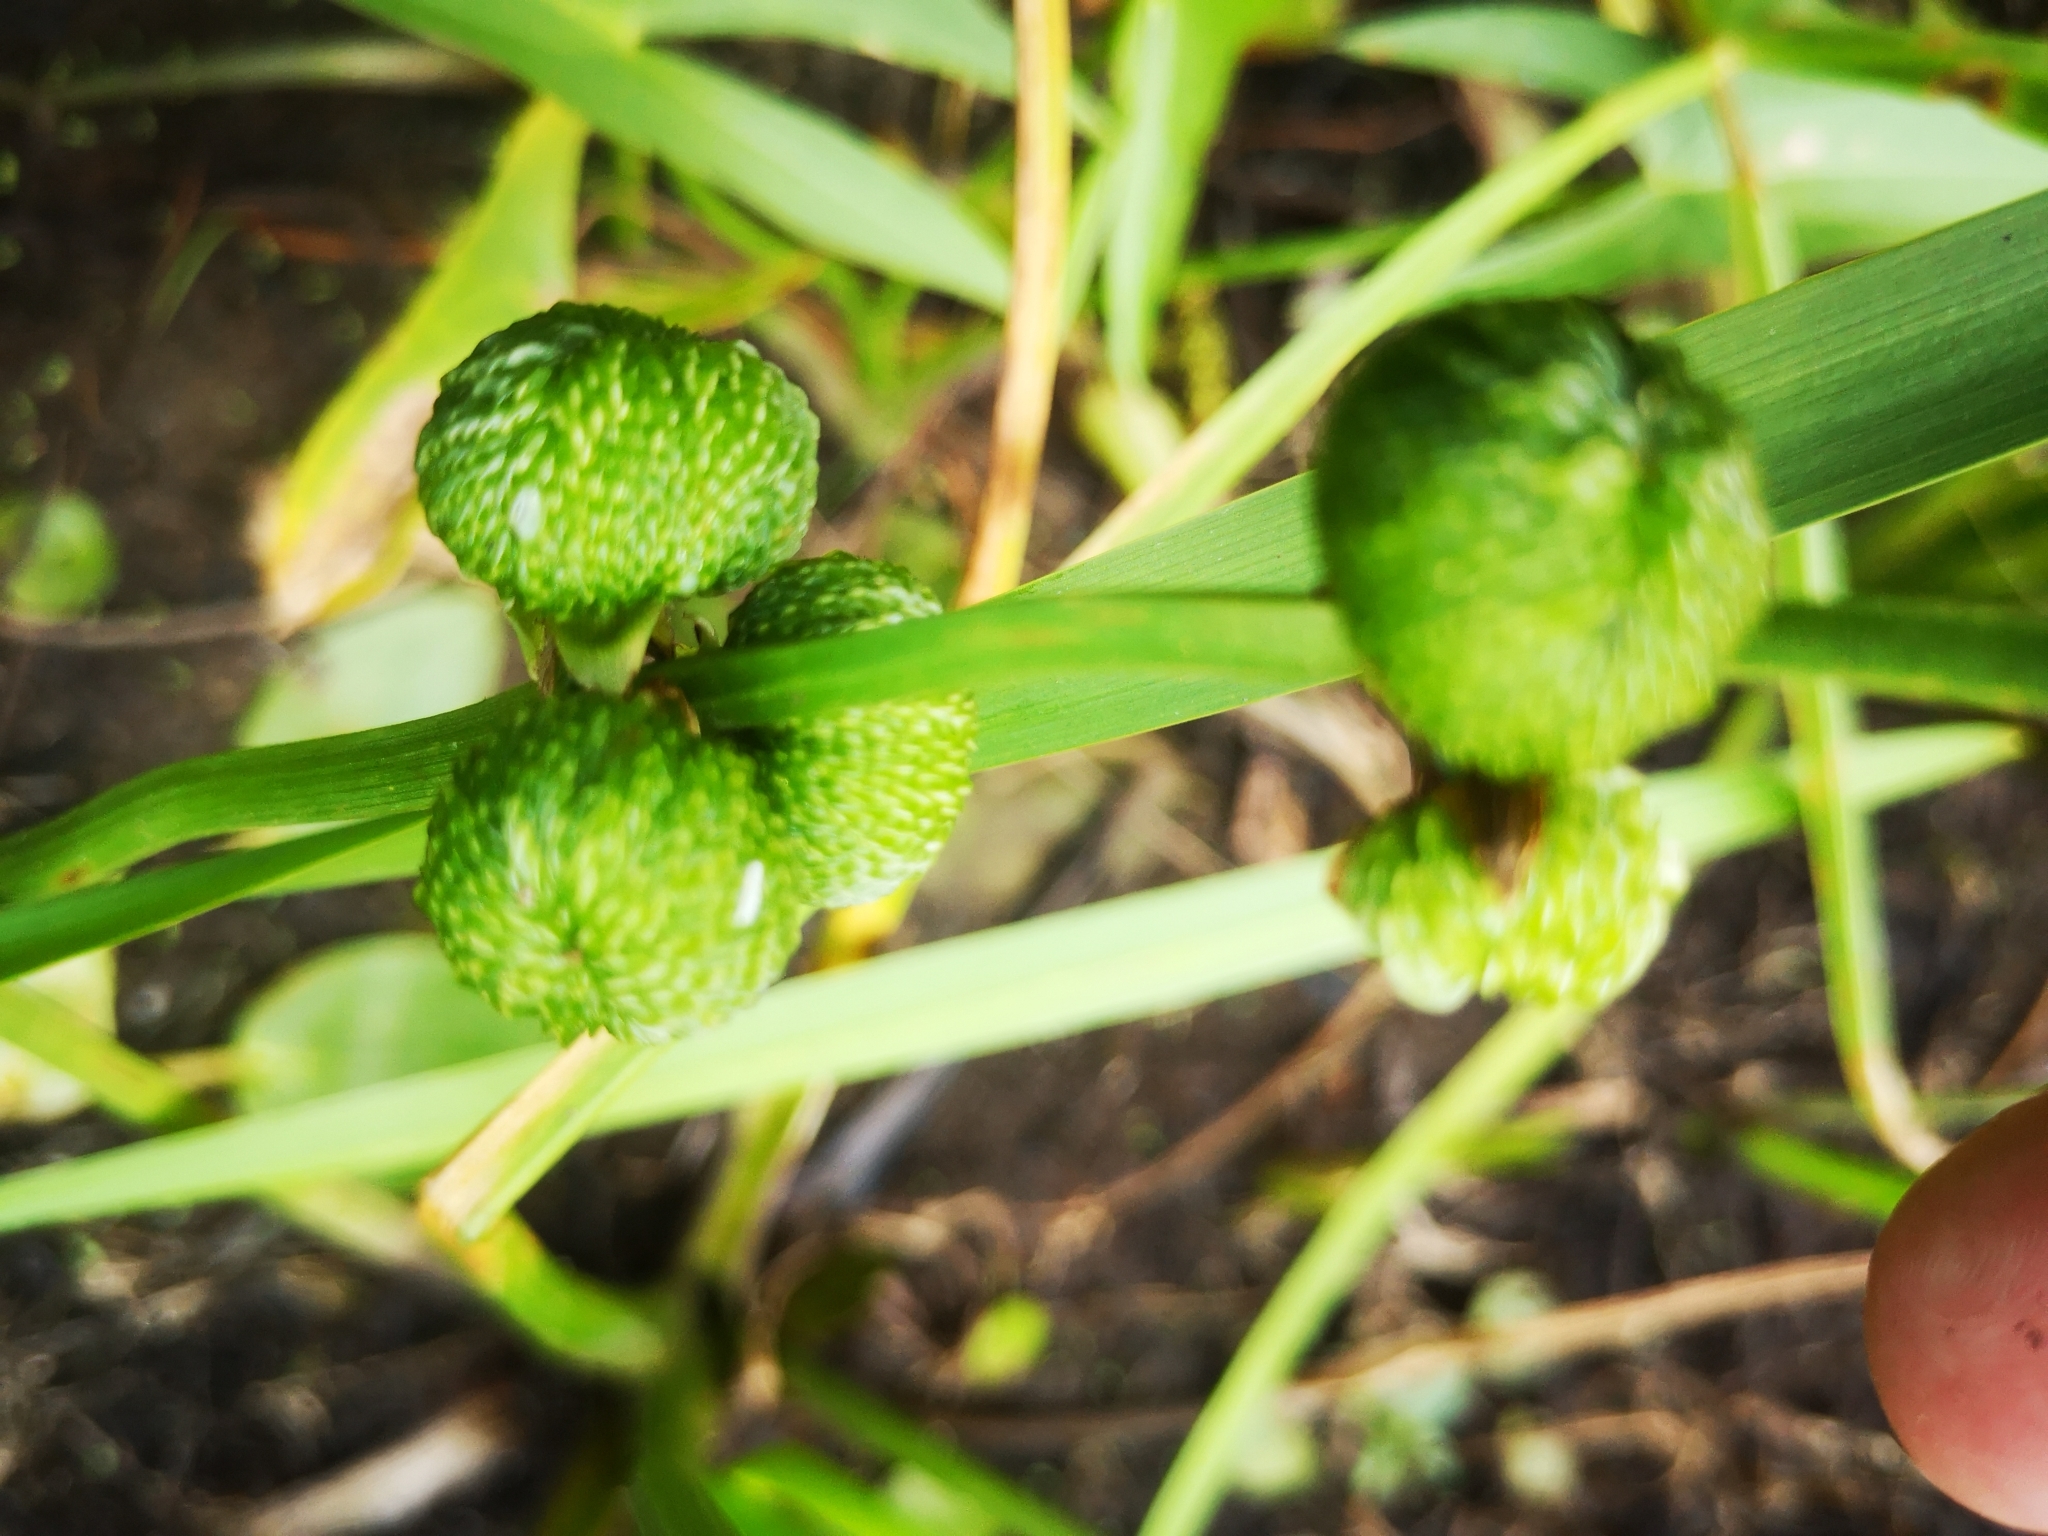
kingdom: Plantae
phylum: Tracheophyta
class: Liliopsida
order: Alismatales
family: Alismataceae
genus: Sagittaria
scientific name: Sagittaria latifolia
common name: Duck-potato
